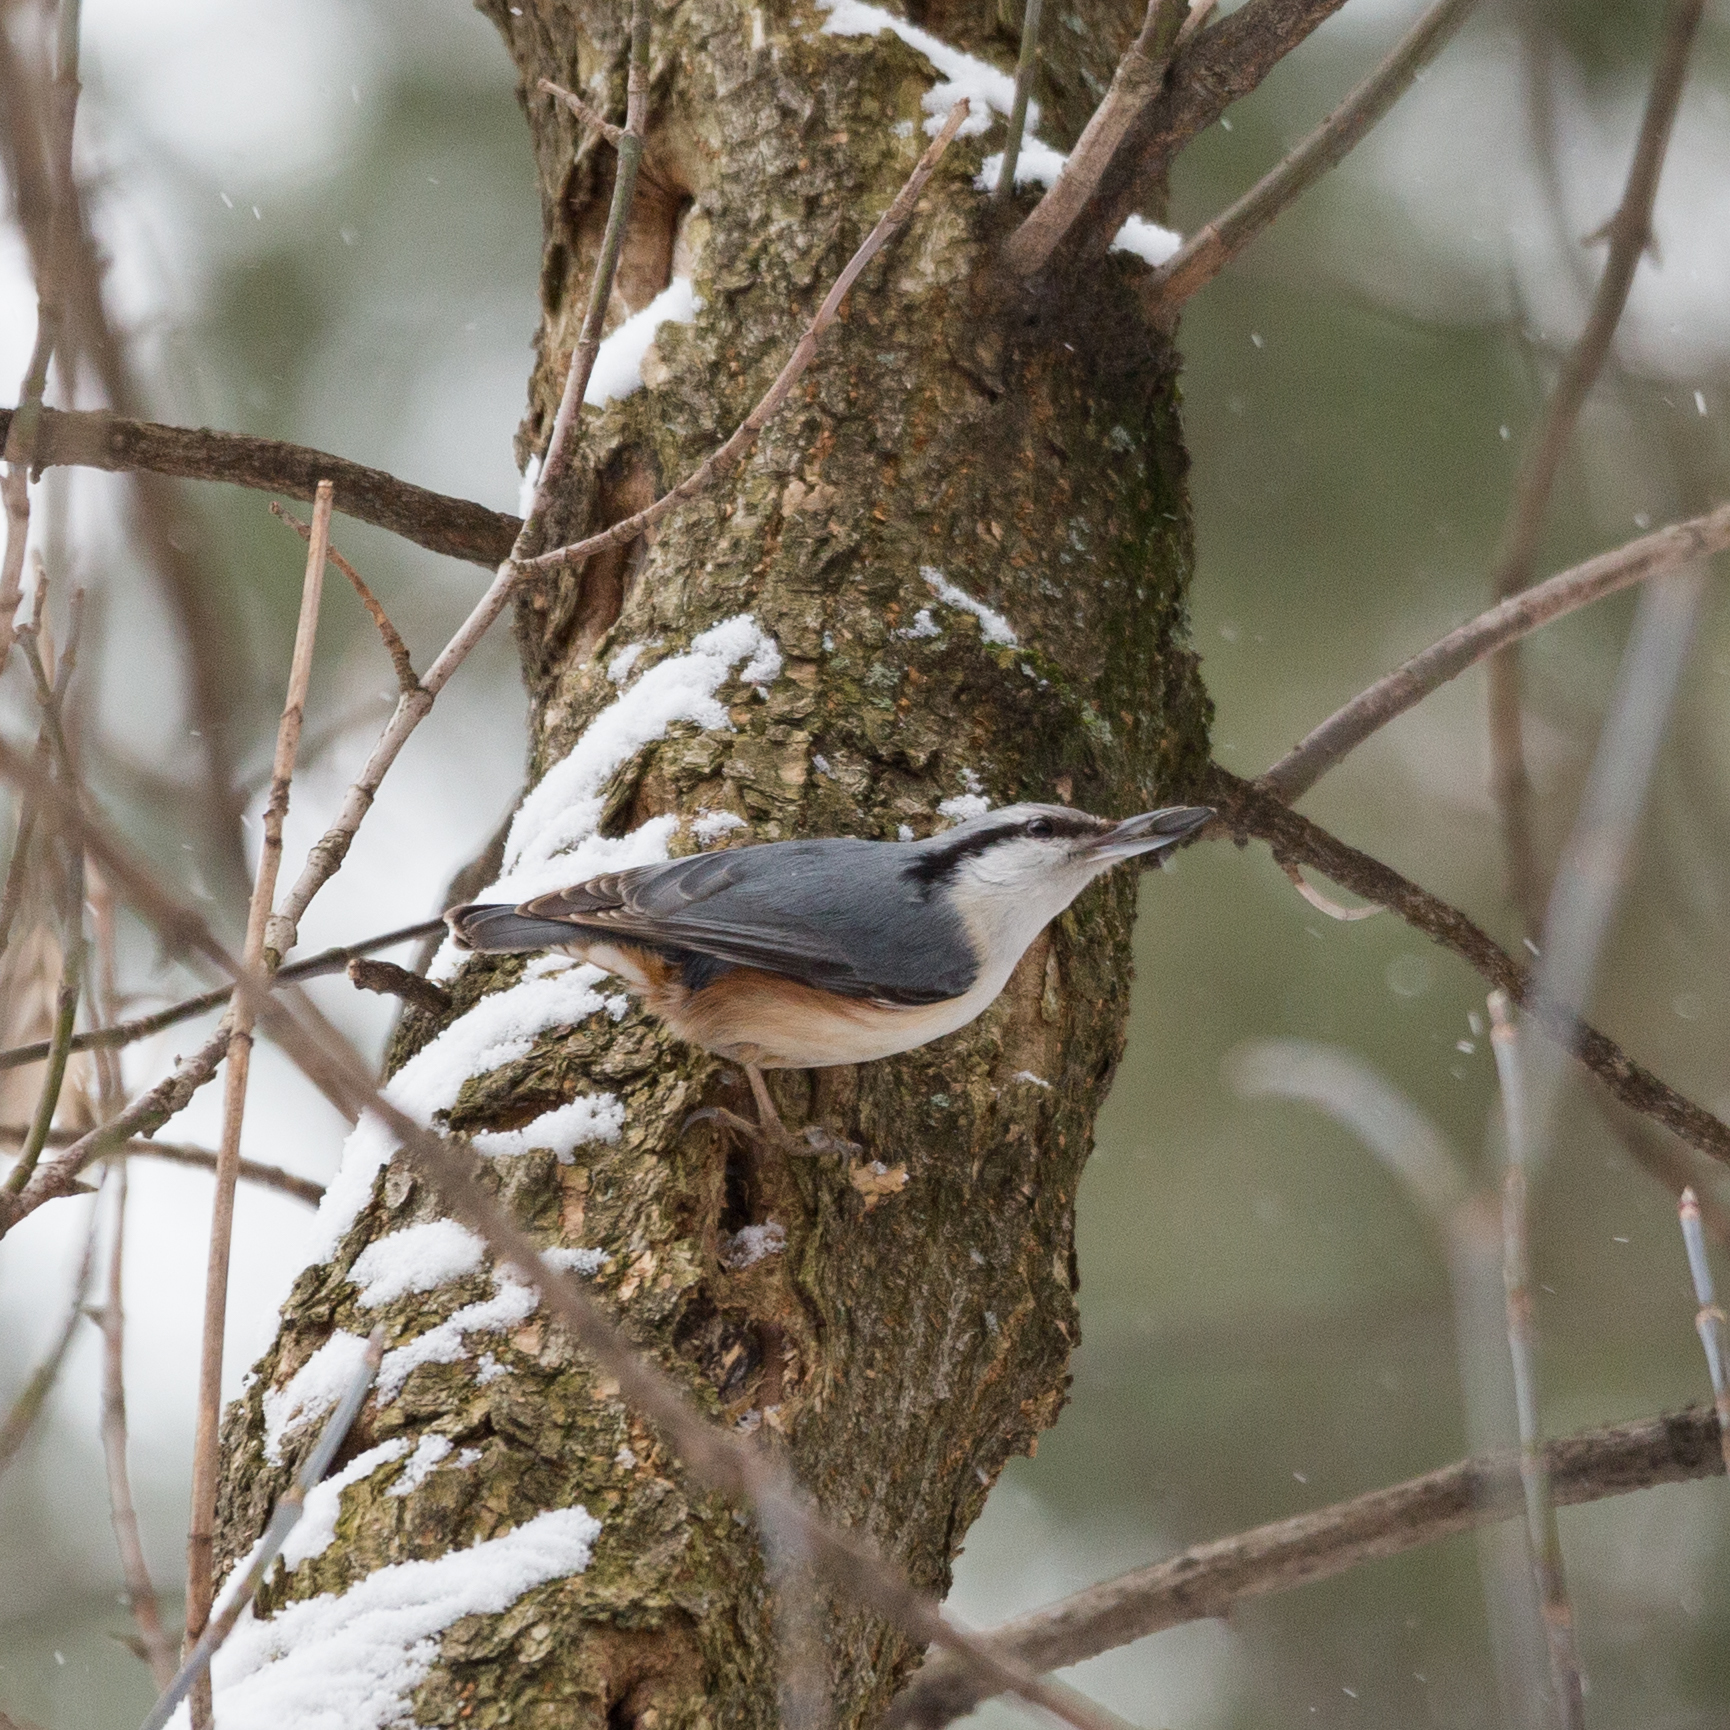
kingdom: Animalia
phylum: Chordata
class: Aves
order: Passeriformes
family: Sittidae
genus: Sitta
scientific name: Sitta europaea
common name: Eurasian nuthatch
